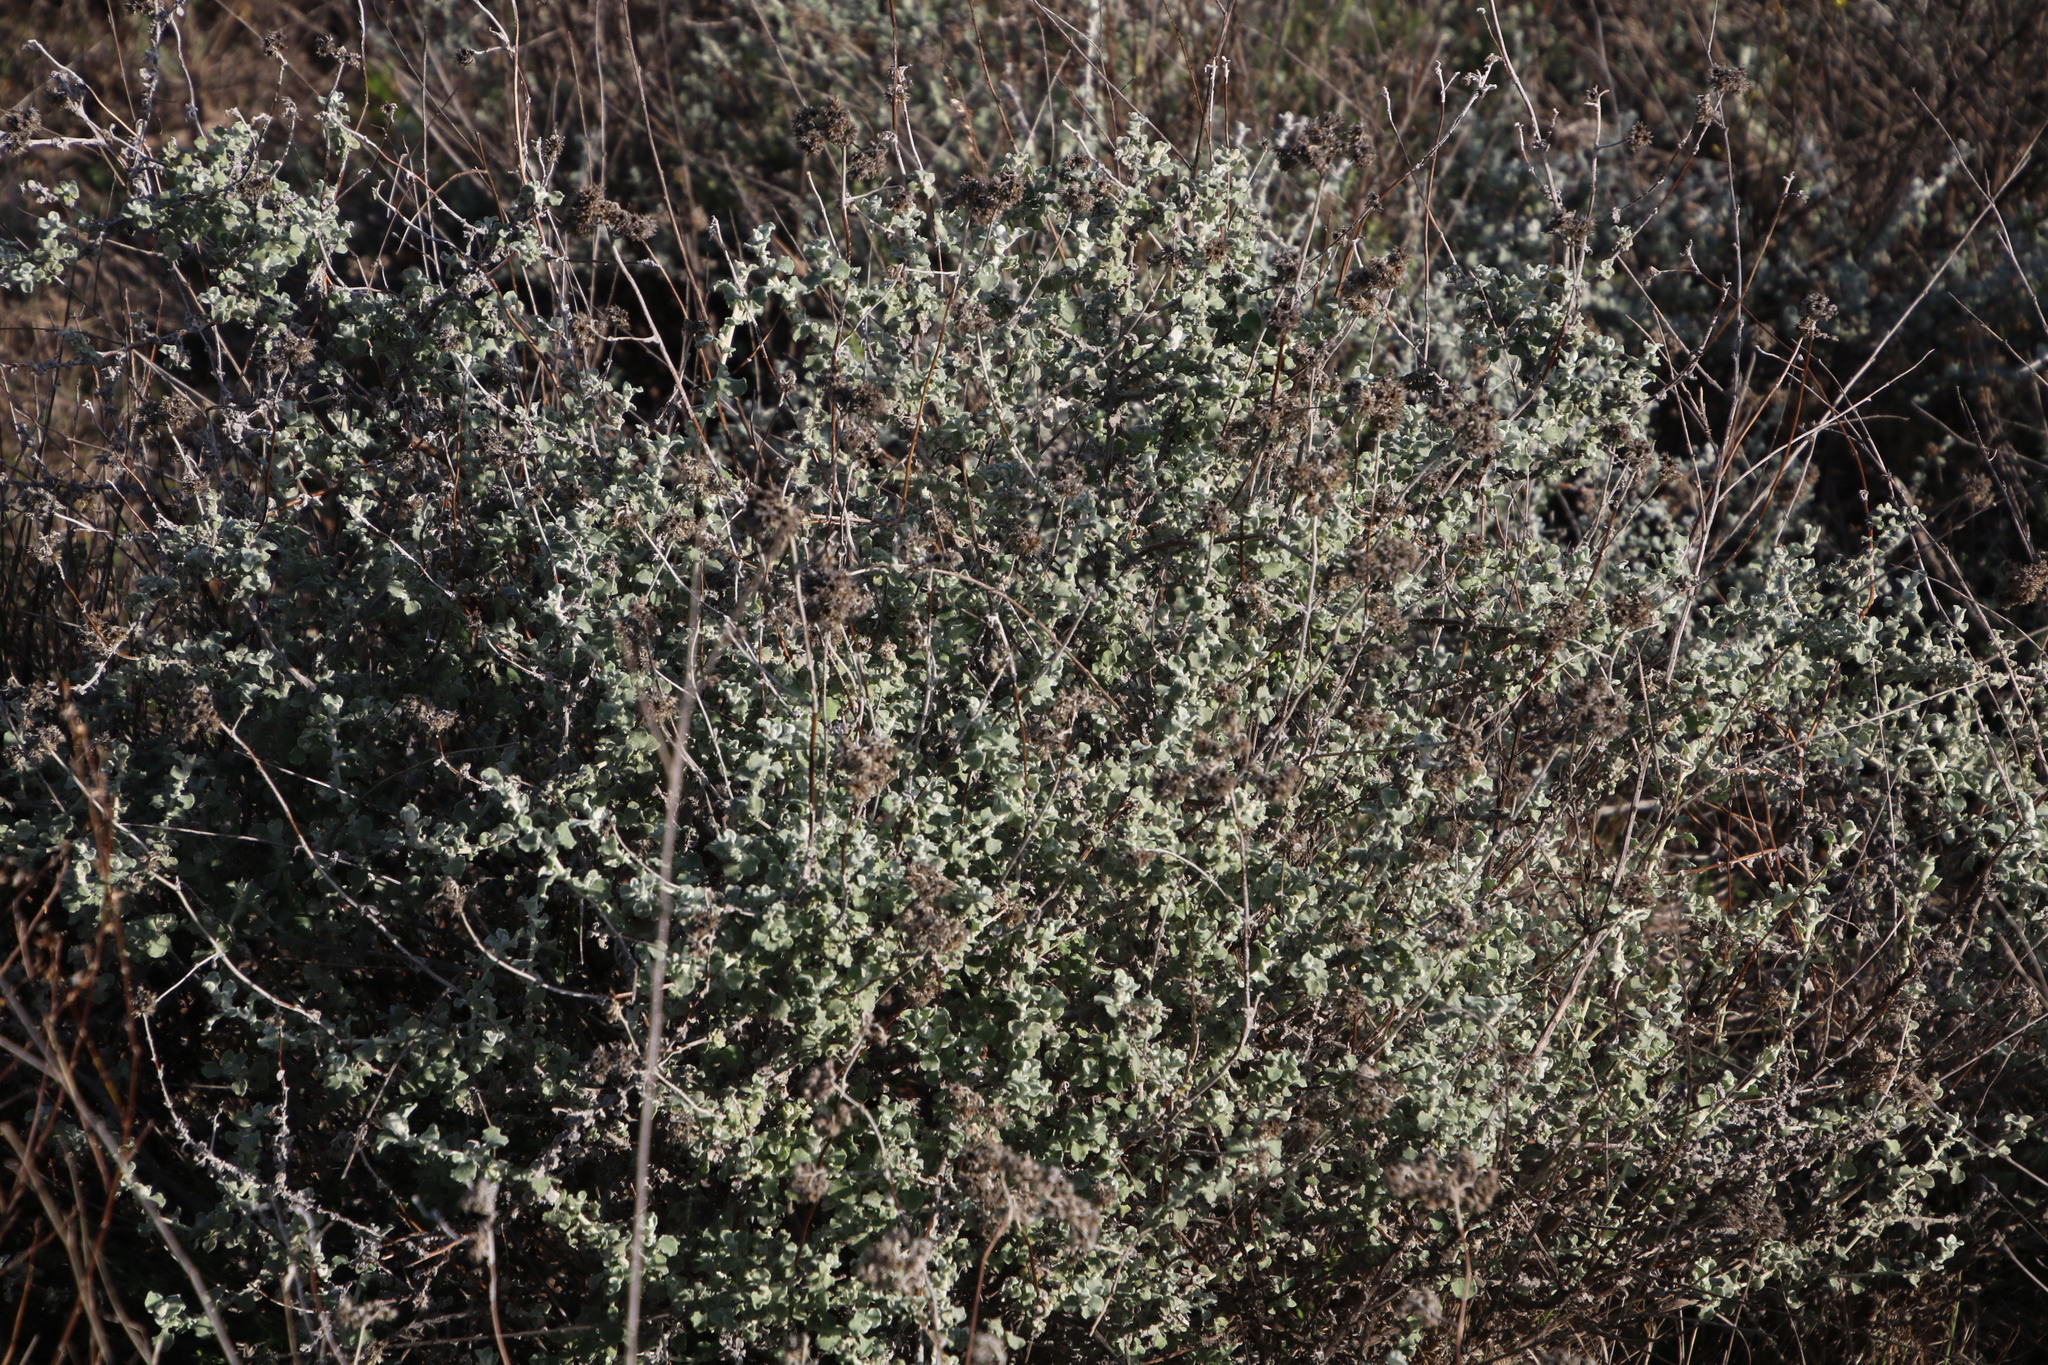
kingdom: Plantae
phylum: Tracheophyta
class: Magnoliopsida
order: Asterales
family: Asteraceae
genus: Helichrysum
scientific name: Helichrysum patulum
